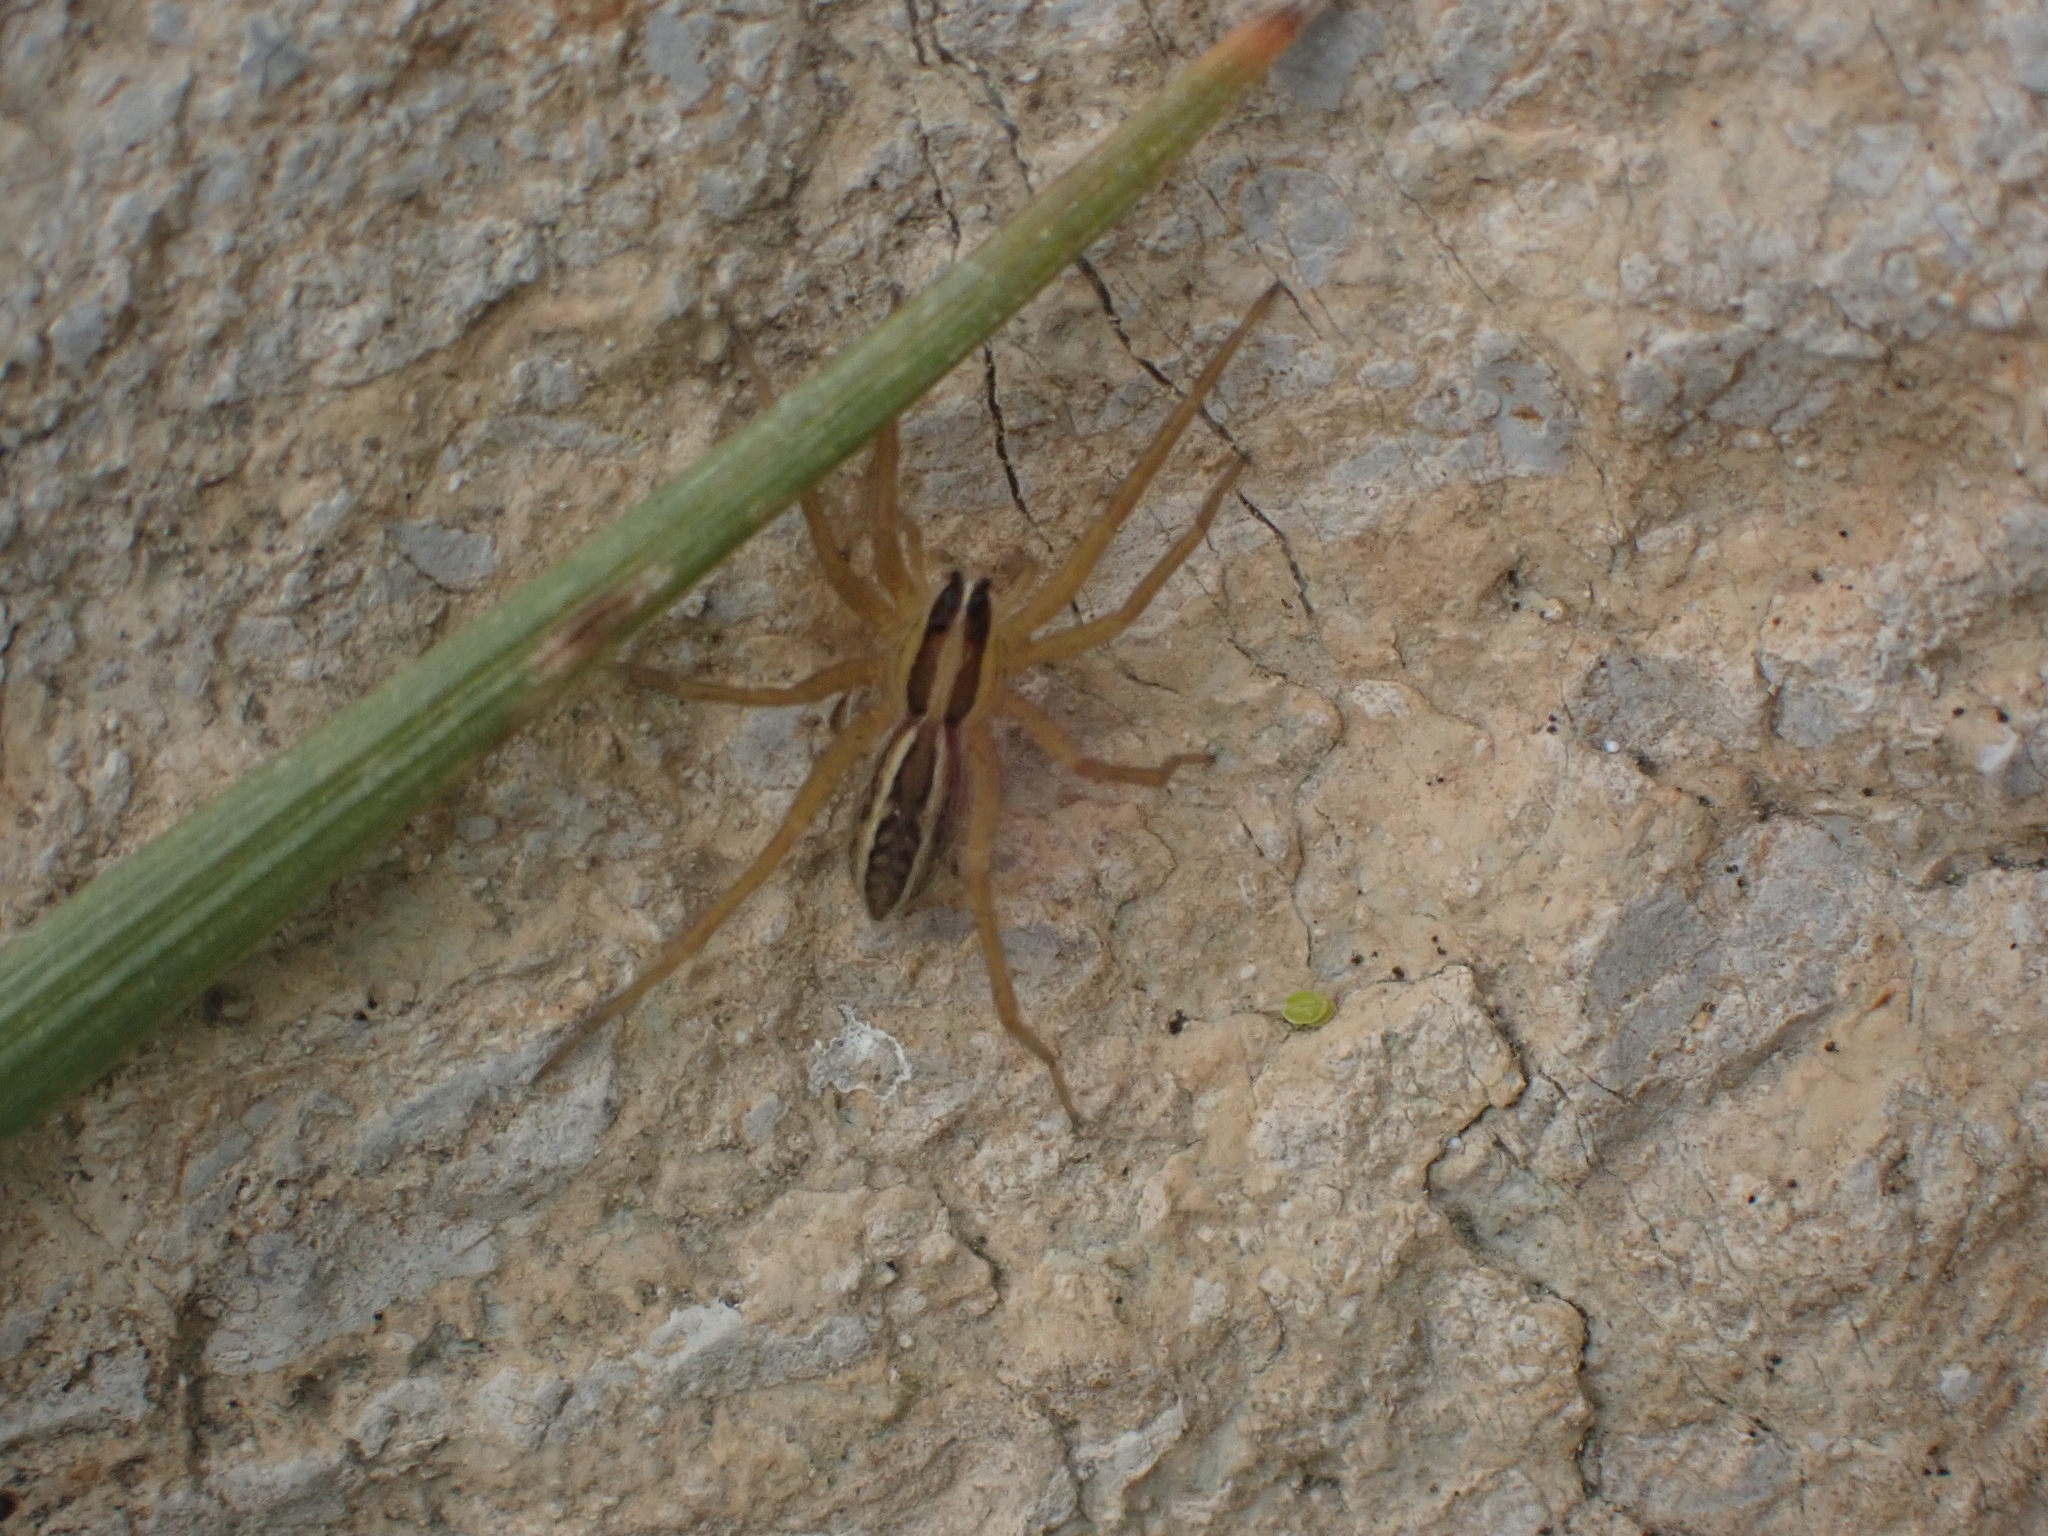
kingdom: Animalia
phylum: Arthropoda
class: Arachnida
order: Araneae
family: Lycosidae
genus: Rabidosa
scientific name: Rabidosa rabida
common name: Rabid wolf spider
